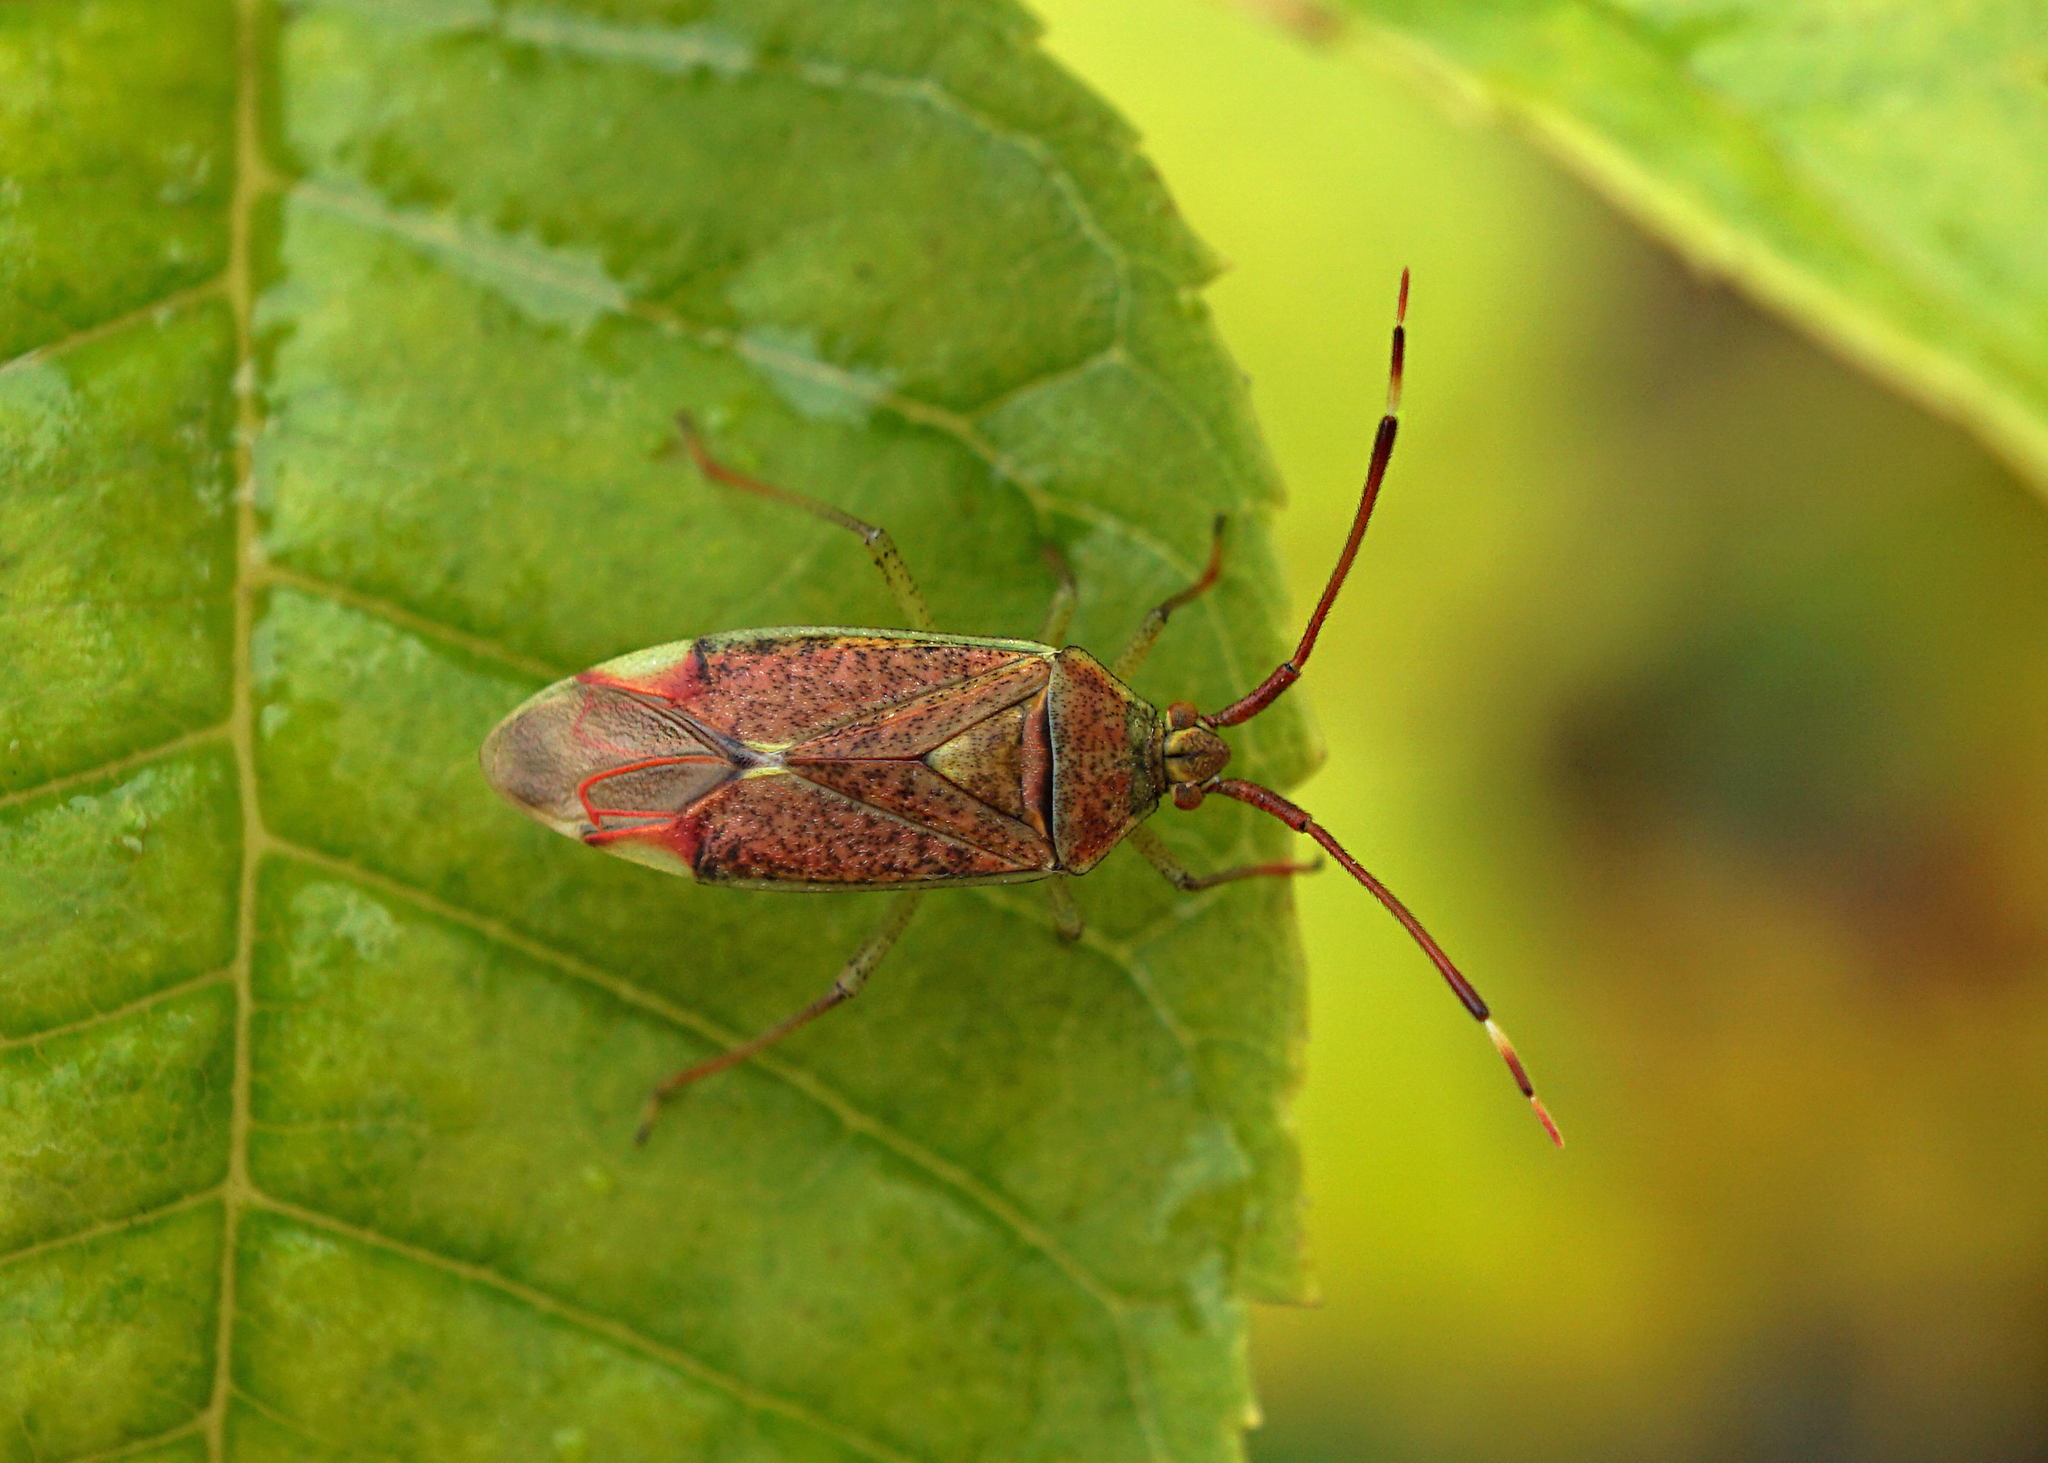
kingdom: Animalia
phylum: Arthropoda
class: Insecta
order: Hemiptera
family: Miridae
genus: Pantilius
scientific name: Pantilius tunicatus
